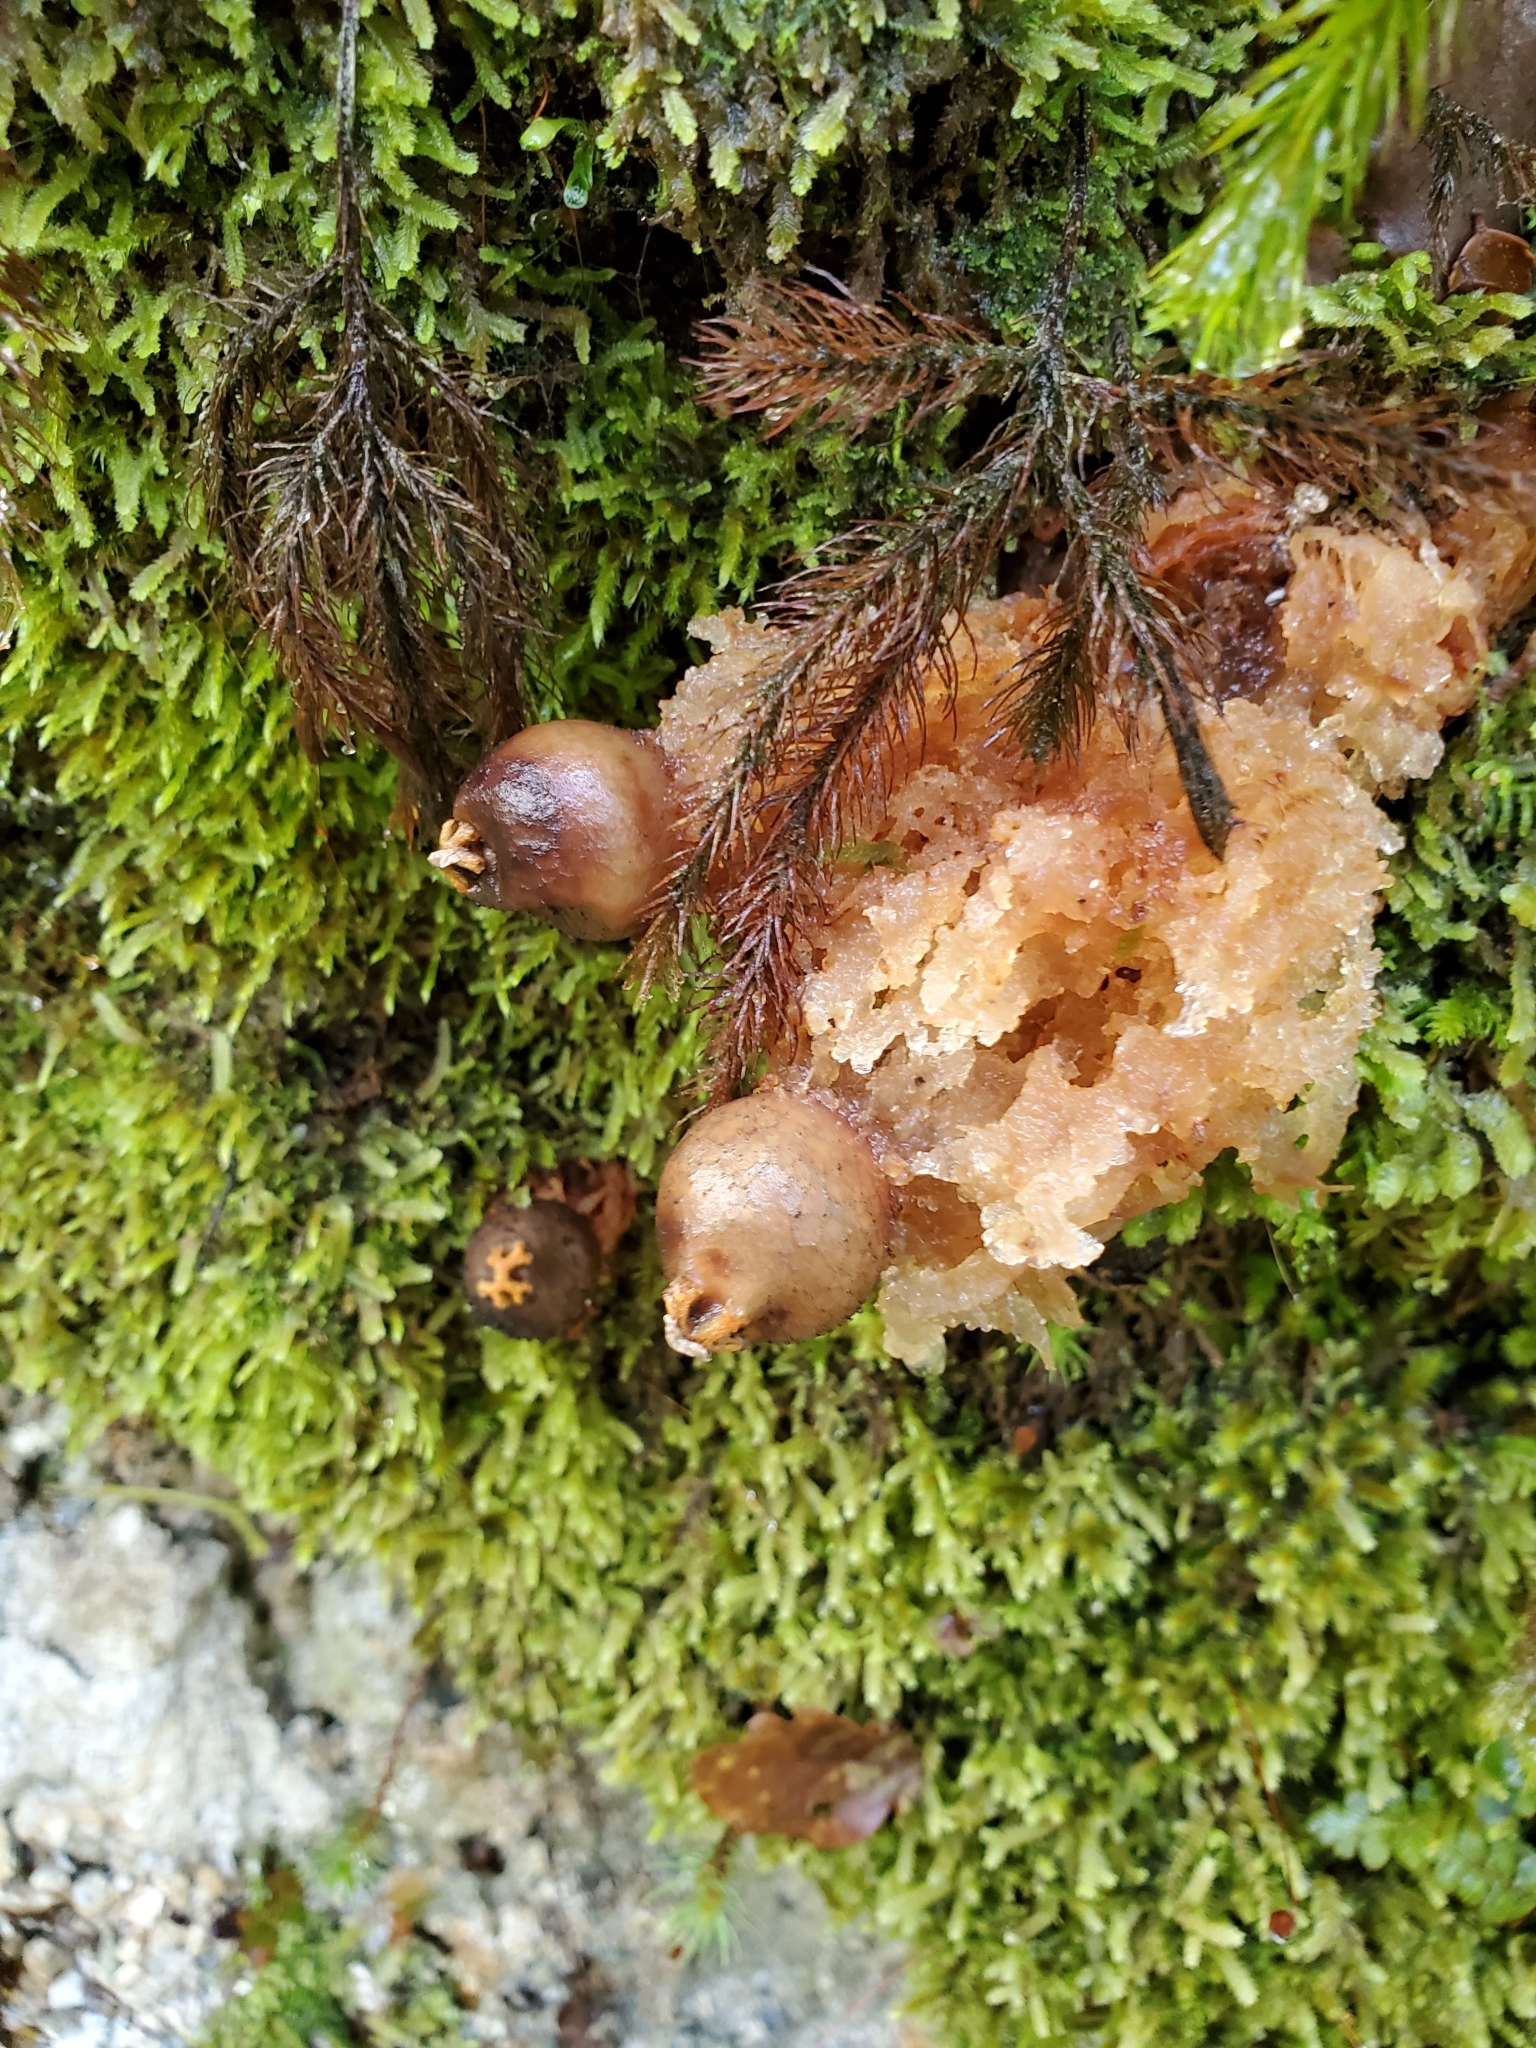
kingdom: Fungi
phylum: Basidiomycota
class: Agaricomycetes
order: Boletales
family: Calostomataceae
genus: Calostoma
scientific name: Calostoma rodwayi
